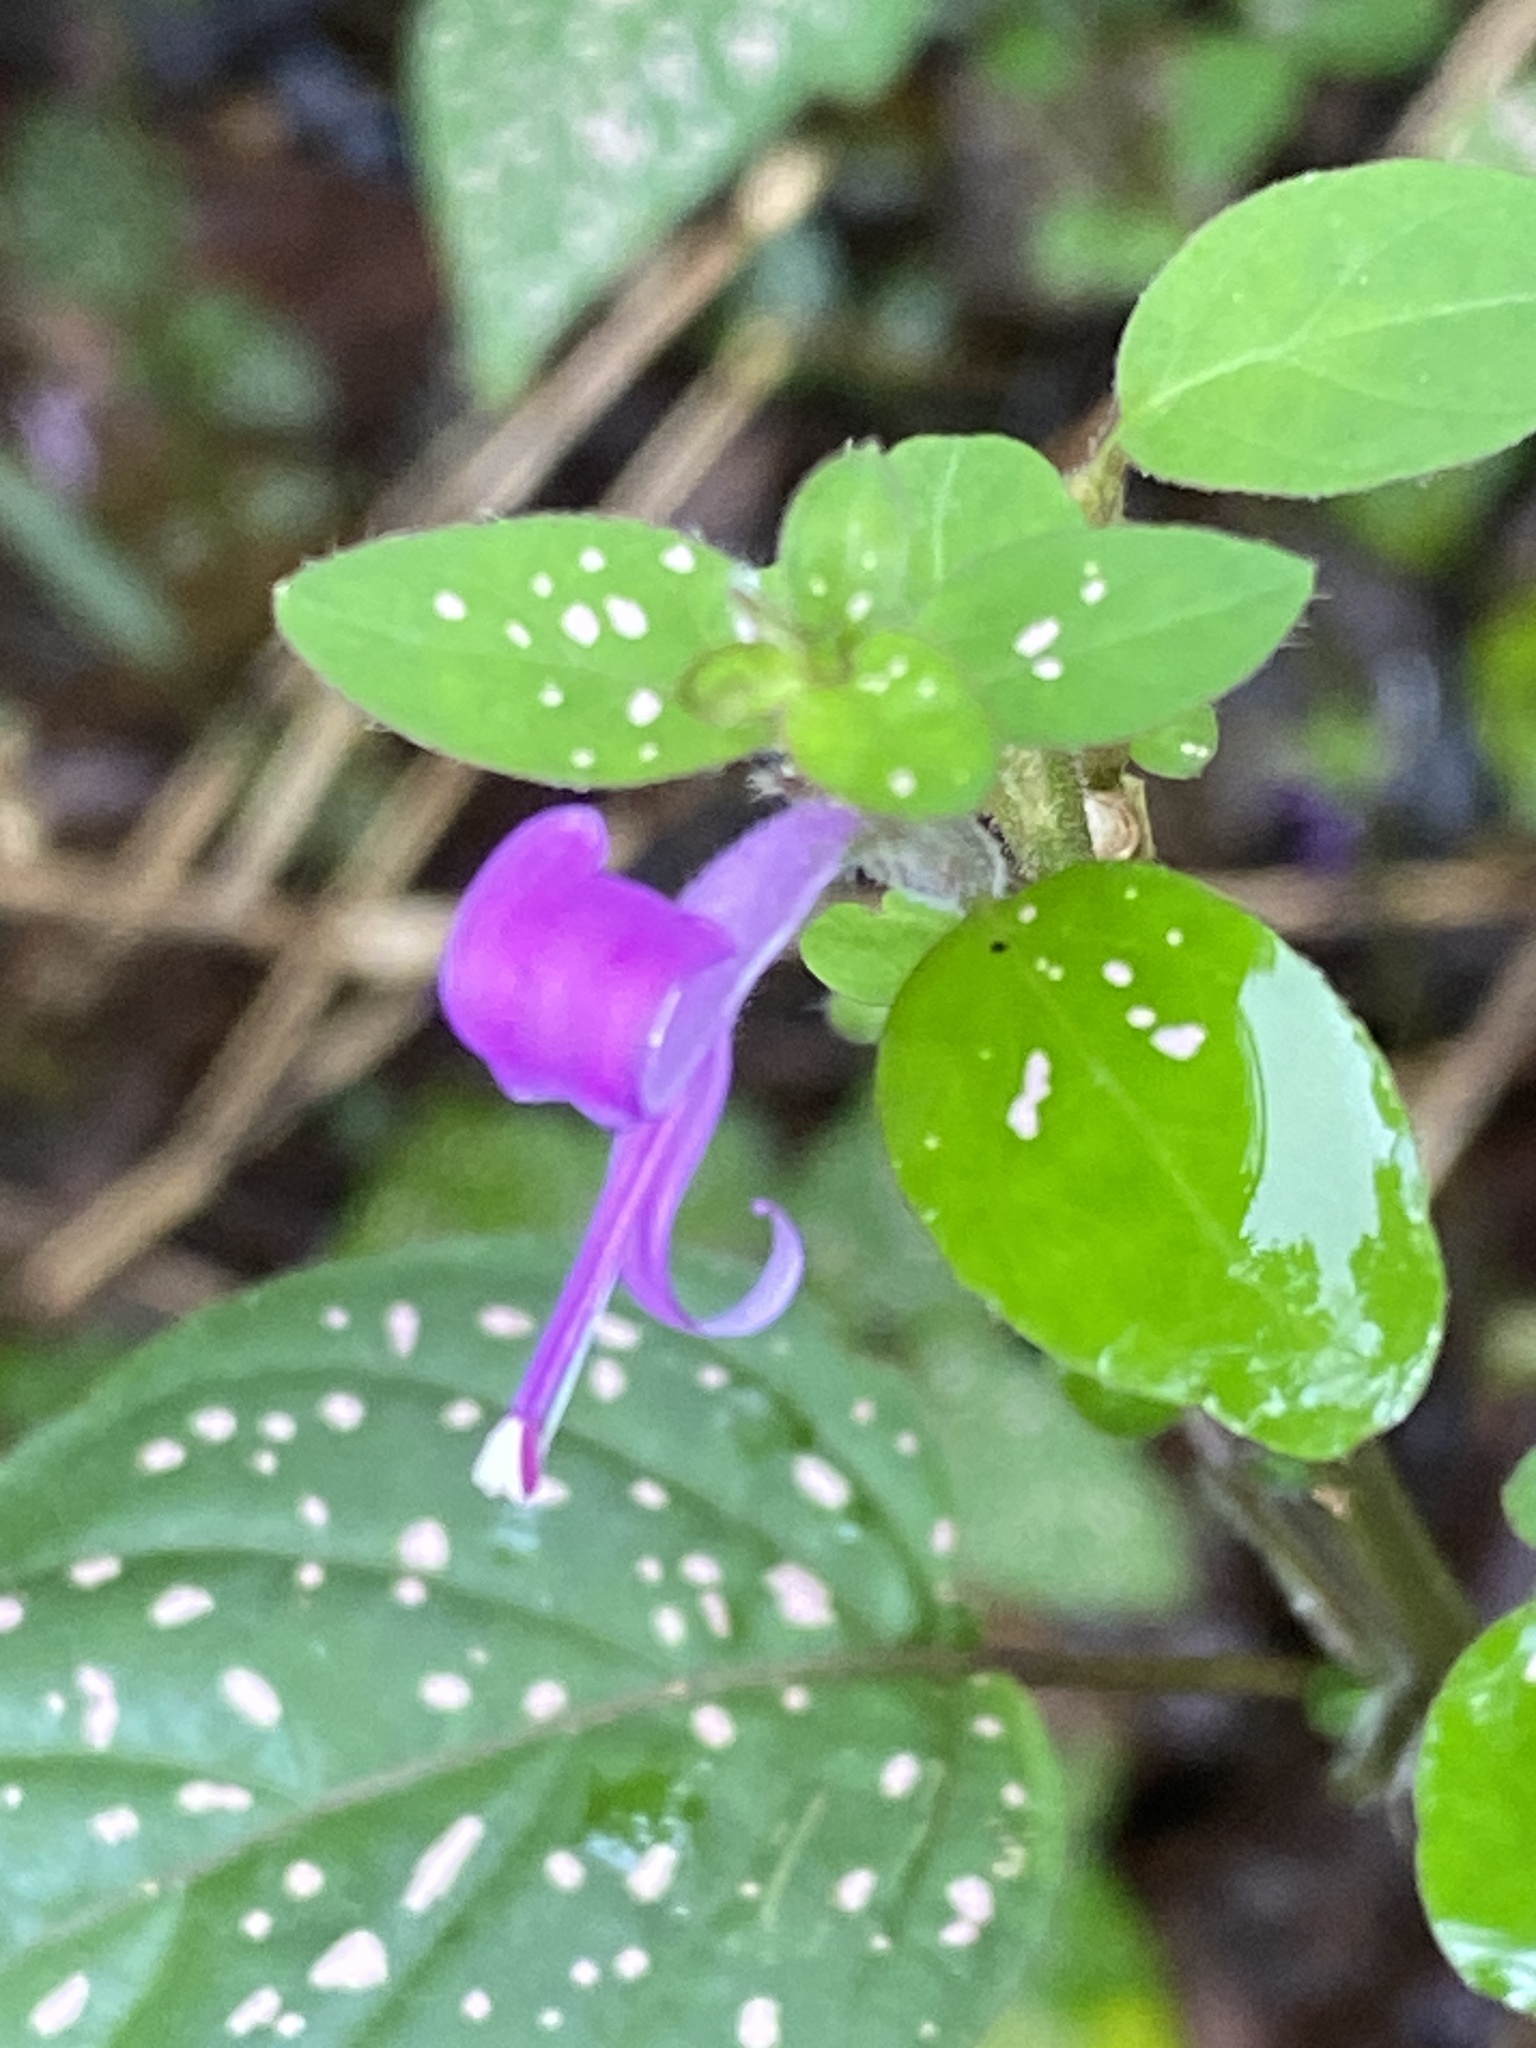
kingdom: Plantae
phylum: Tracheophyta
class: Magnoliopsida
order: Lamiales
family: Acanthaceae
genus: Hypoestes
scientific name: Hypoestes phyllostachya
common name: Polkadot-plant
